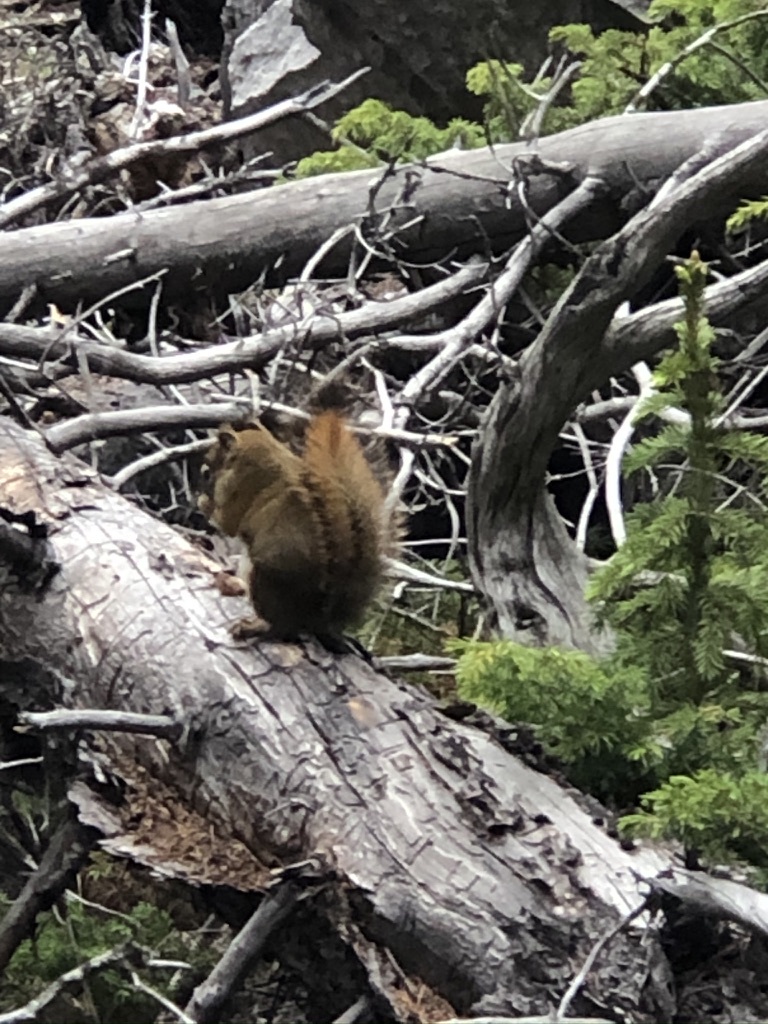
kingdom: Animalia
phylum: Chordata
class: Mammalia
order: Rodentia
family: Sciuridae
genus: Tamiasciurus
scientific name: Tamiasciurus hudsonicus
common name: Red squirrel
